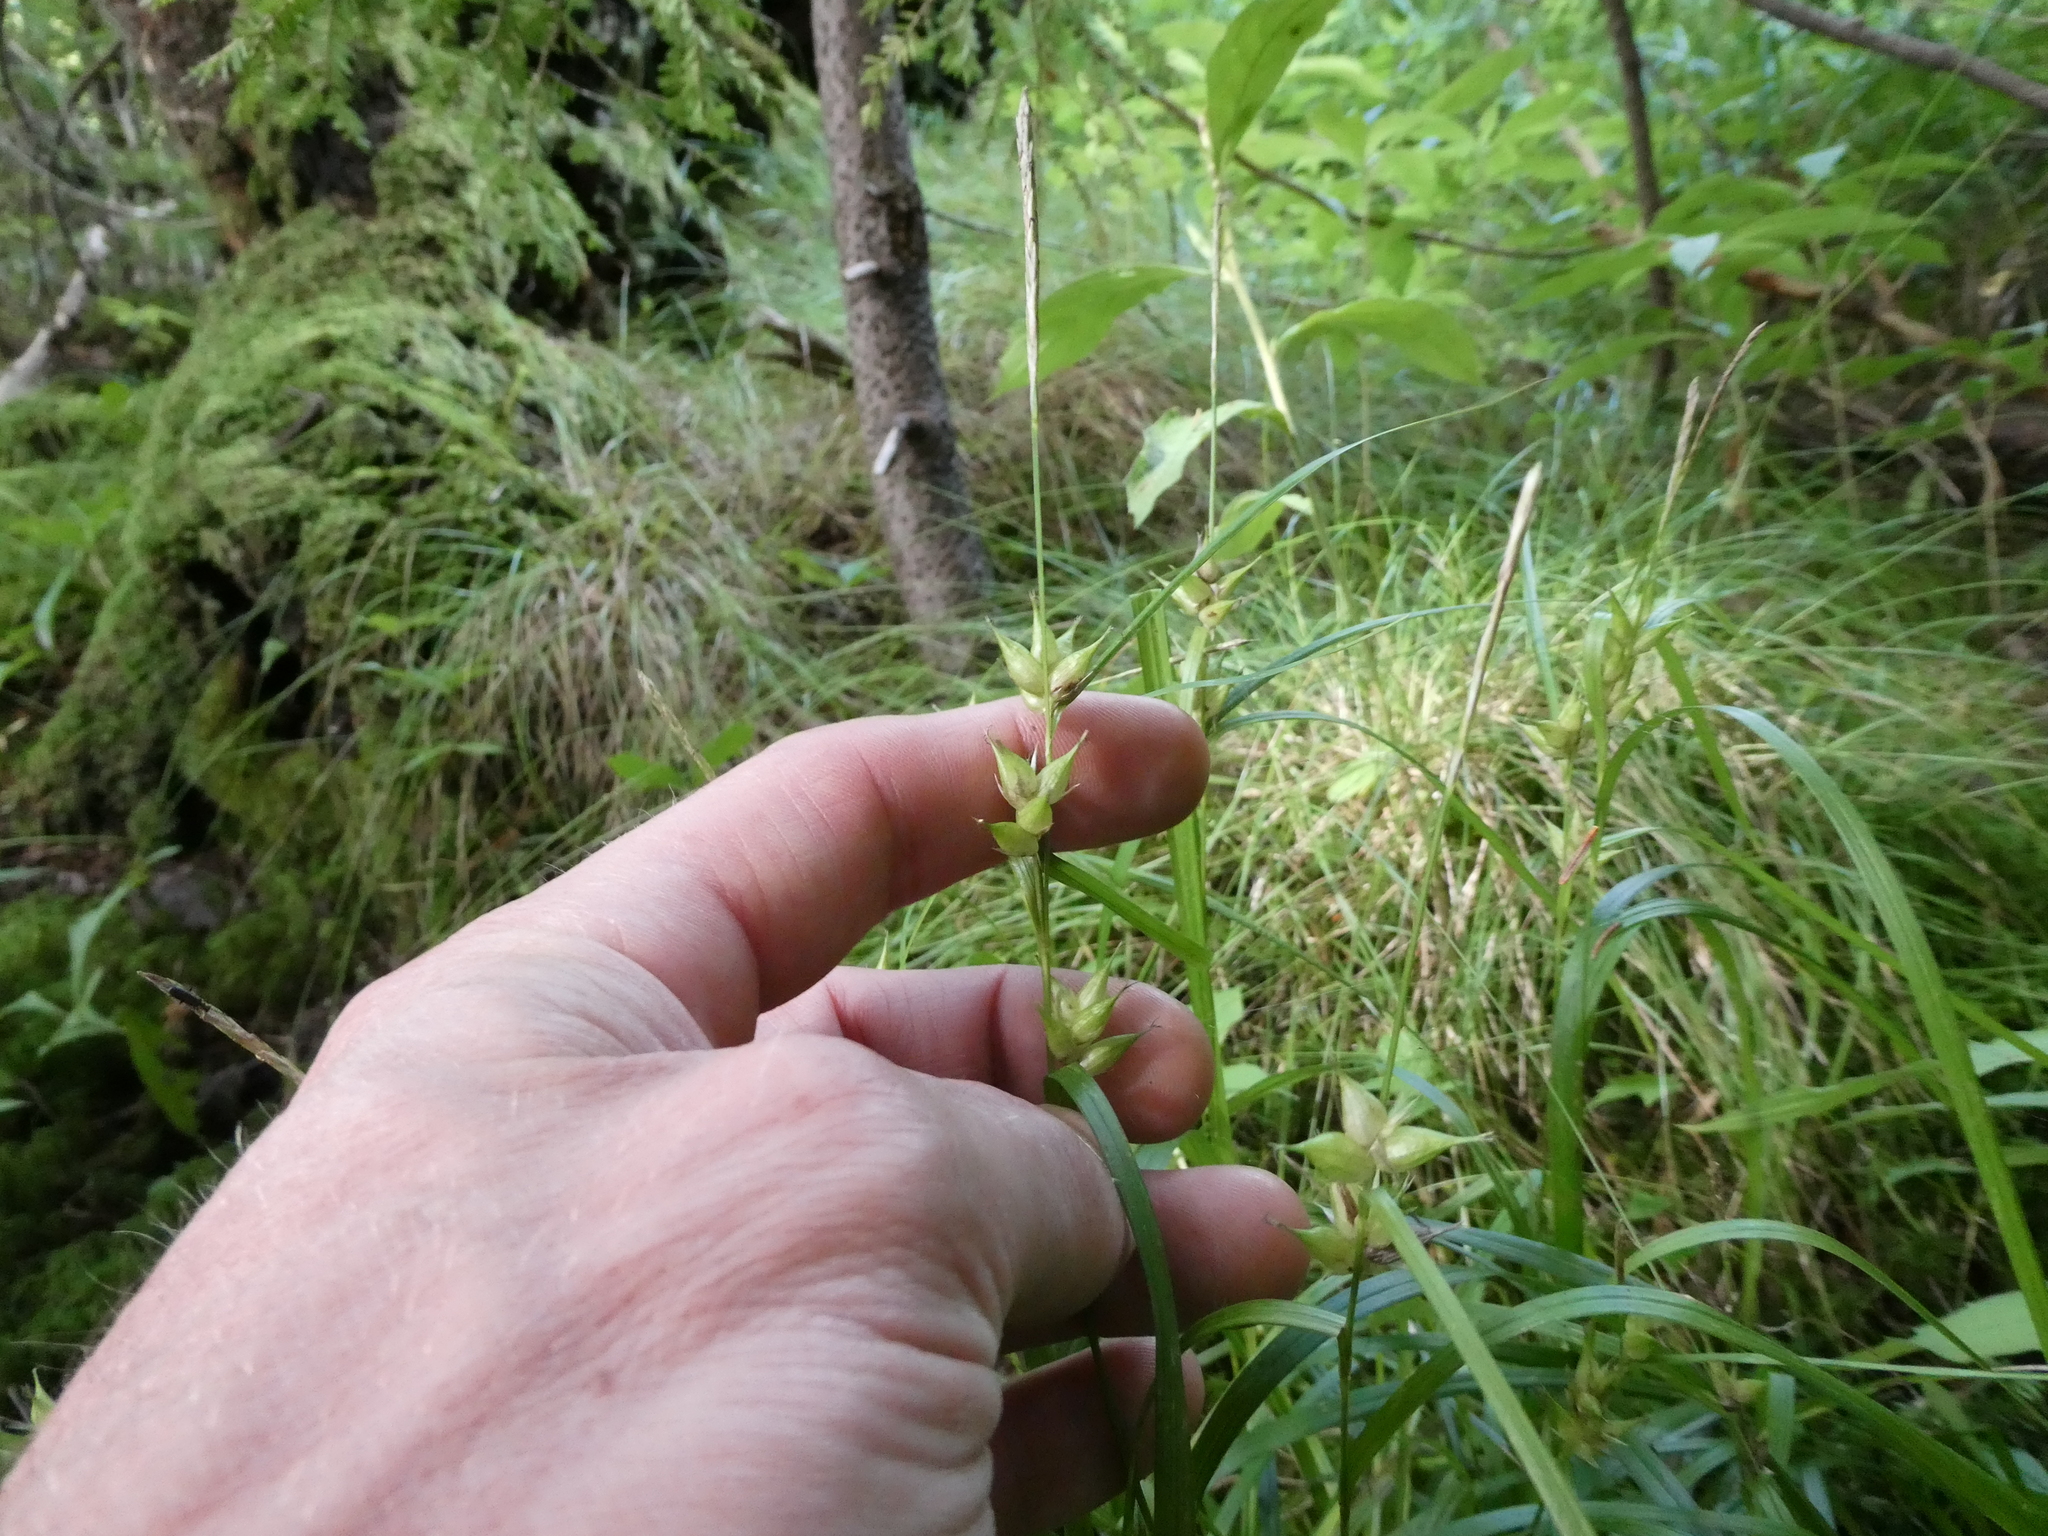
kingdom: Plantae
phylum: Tracheophyta
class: Liliopsida
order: Poales
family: Cyperaceae
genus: Carex
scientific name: Carex intumescens
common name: Greater bladder sedge
